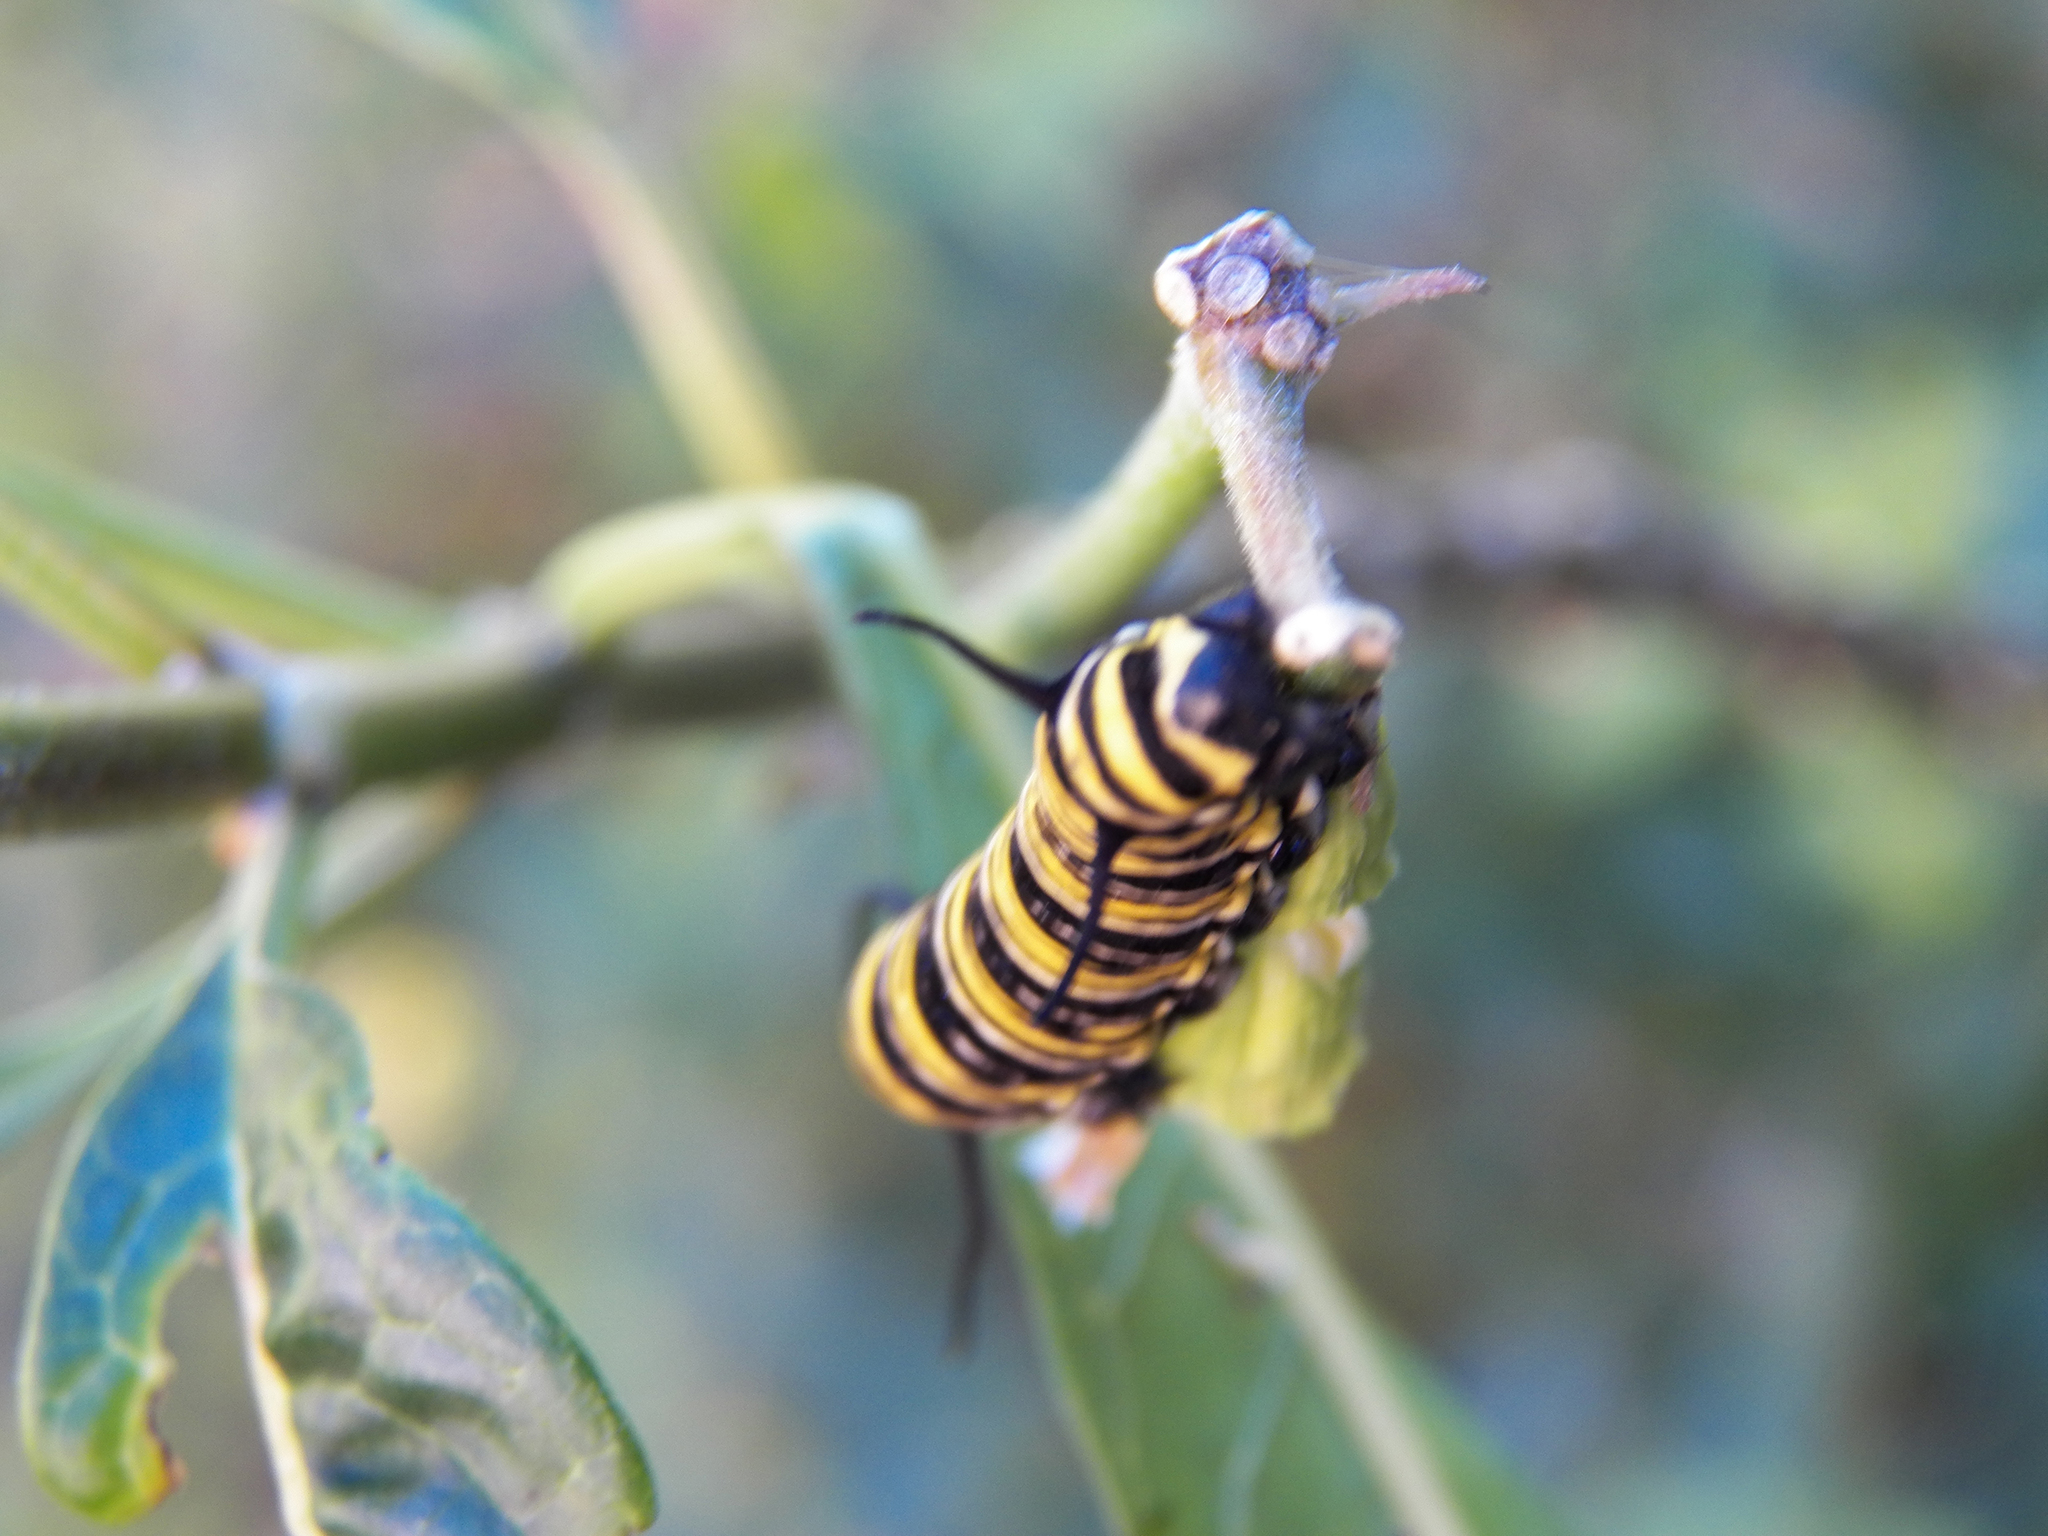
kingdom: Animalia
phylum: Arthropoda
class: Insecta
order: Lepidoptera
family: Nymphalidae
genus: Danaus
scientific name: Danaus plexippus
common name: Monarch
